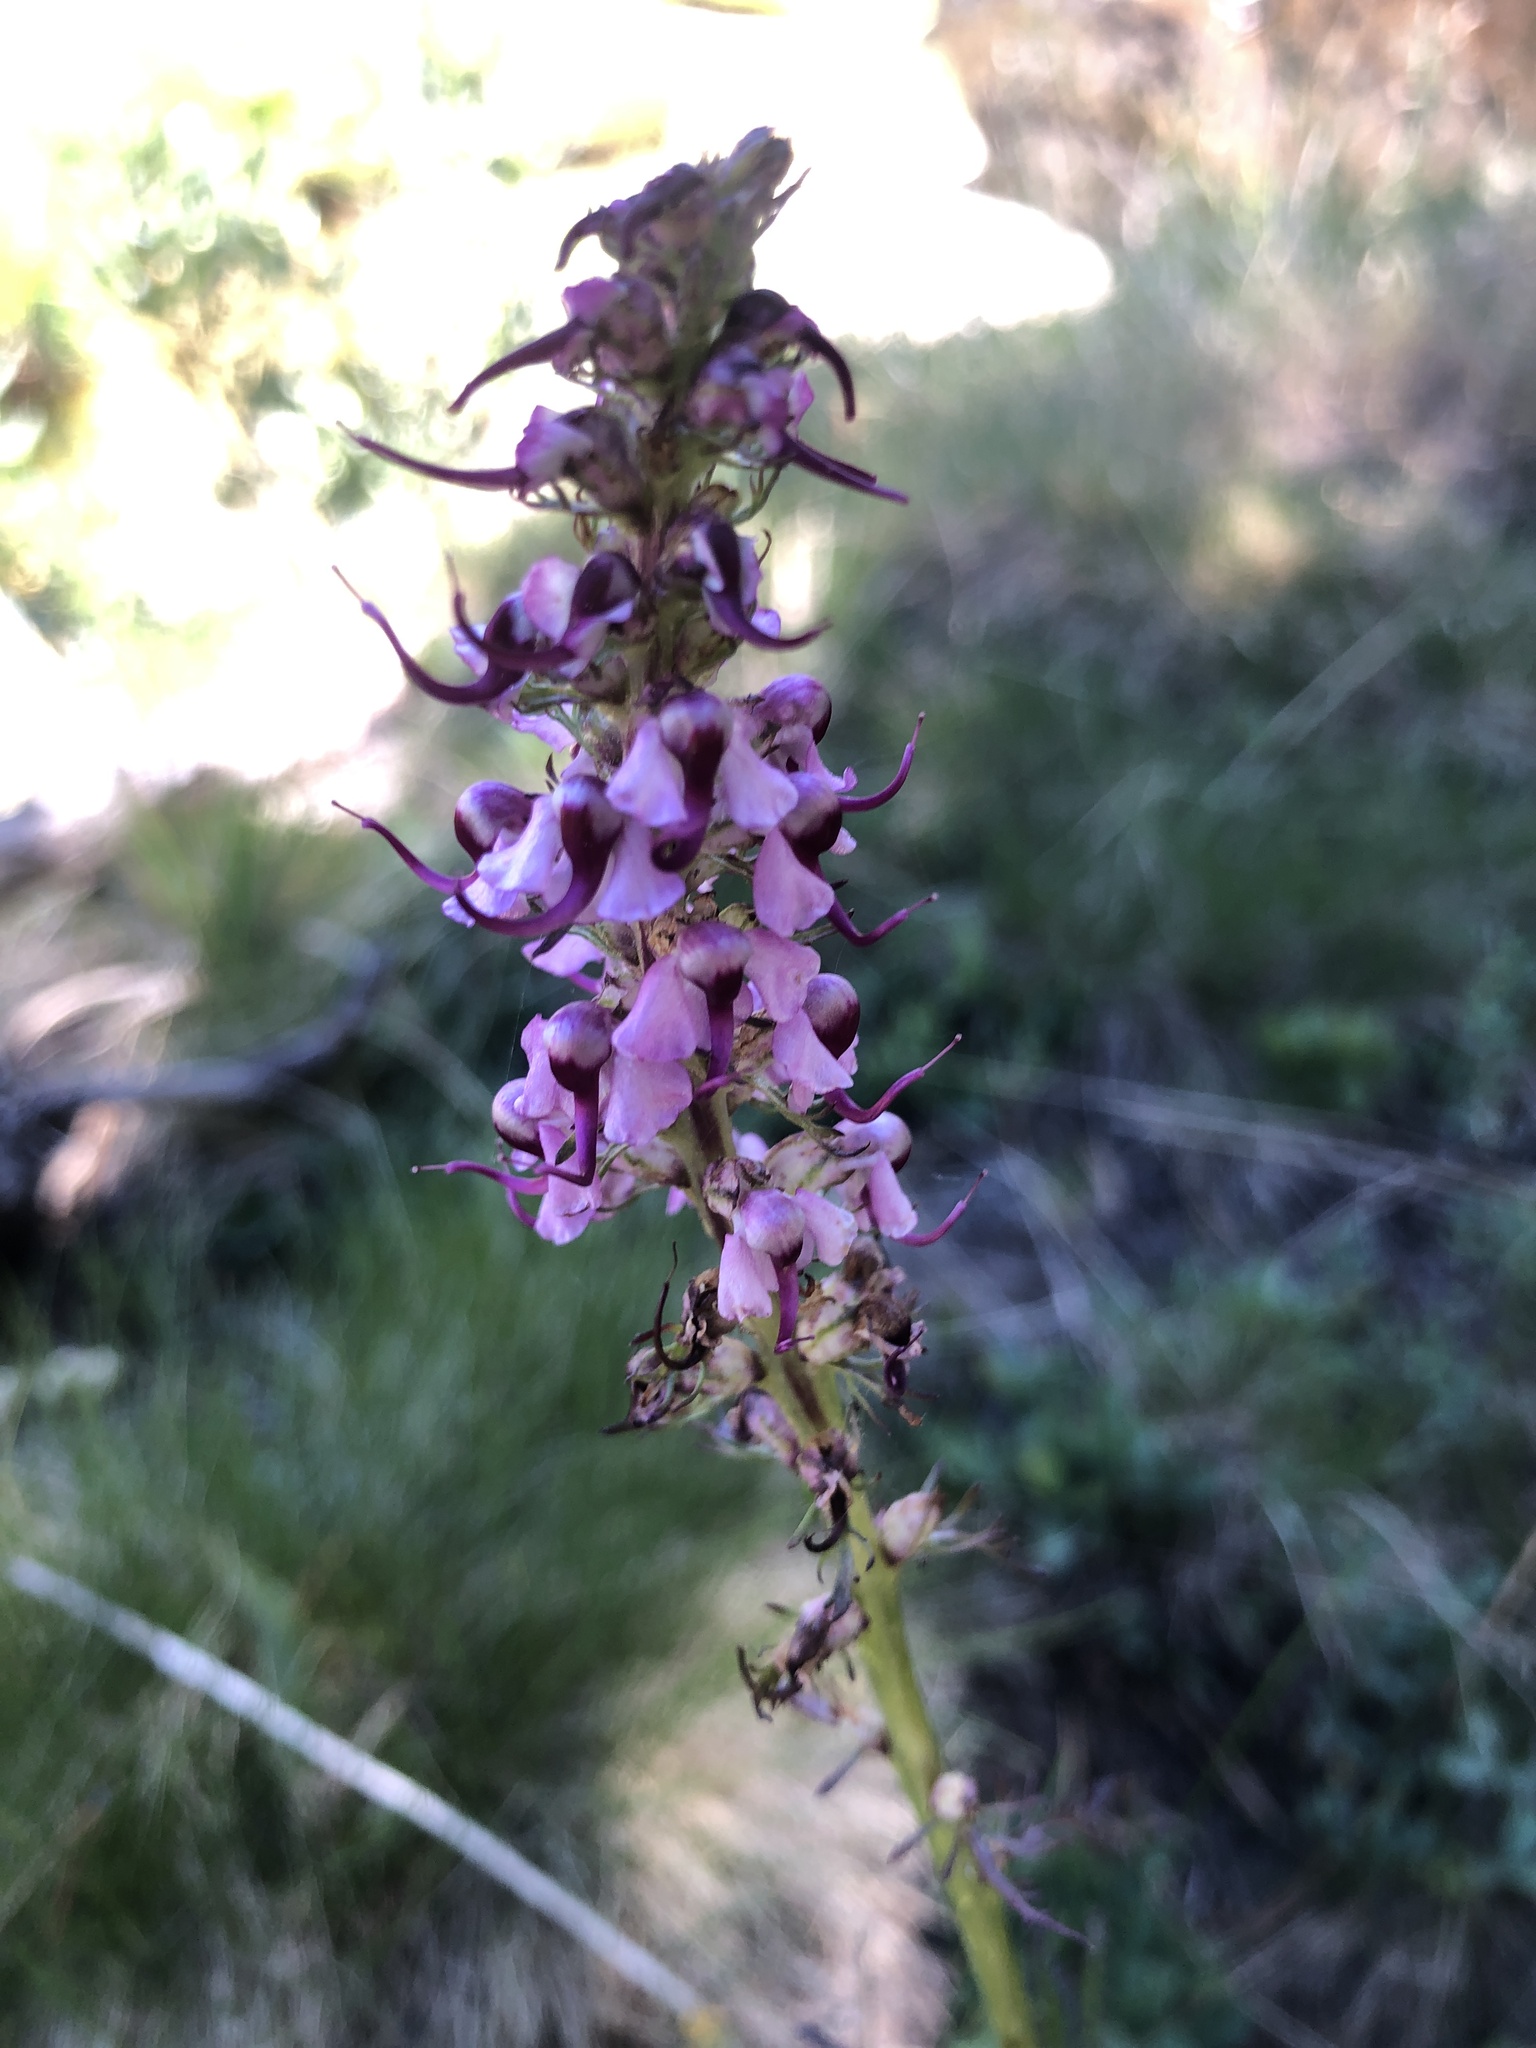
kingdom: Plantae
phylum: Tracheophyta
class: Magnoliopsida
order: Lamiales
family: Orobanchaceae
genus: Pedicularis
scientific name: Pedicularis groenlandica
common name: Elephant's-head
